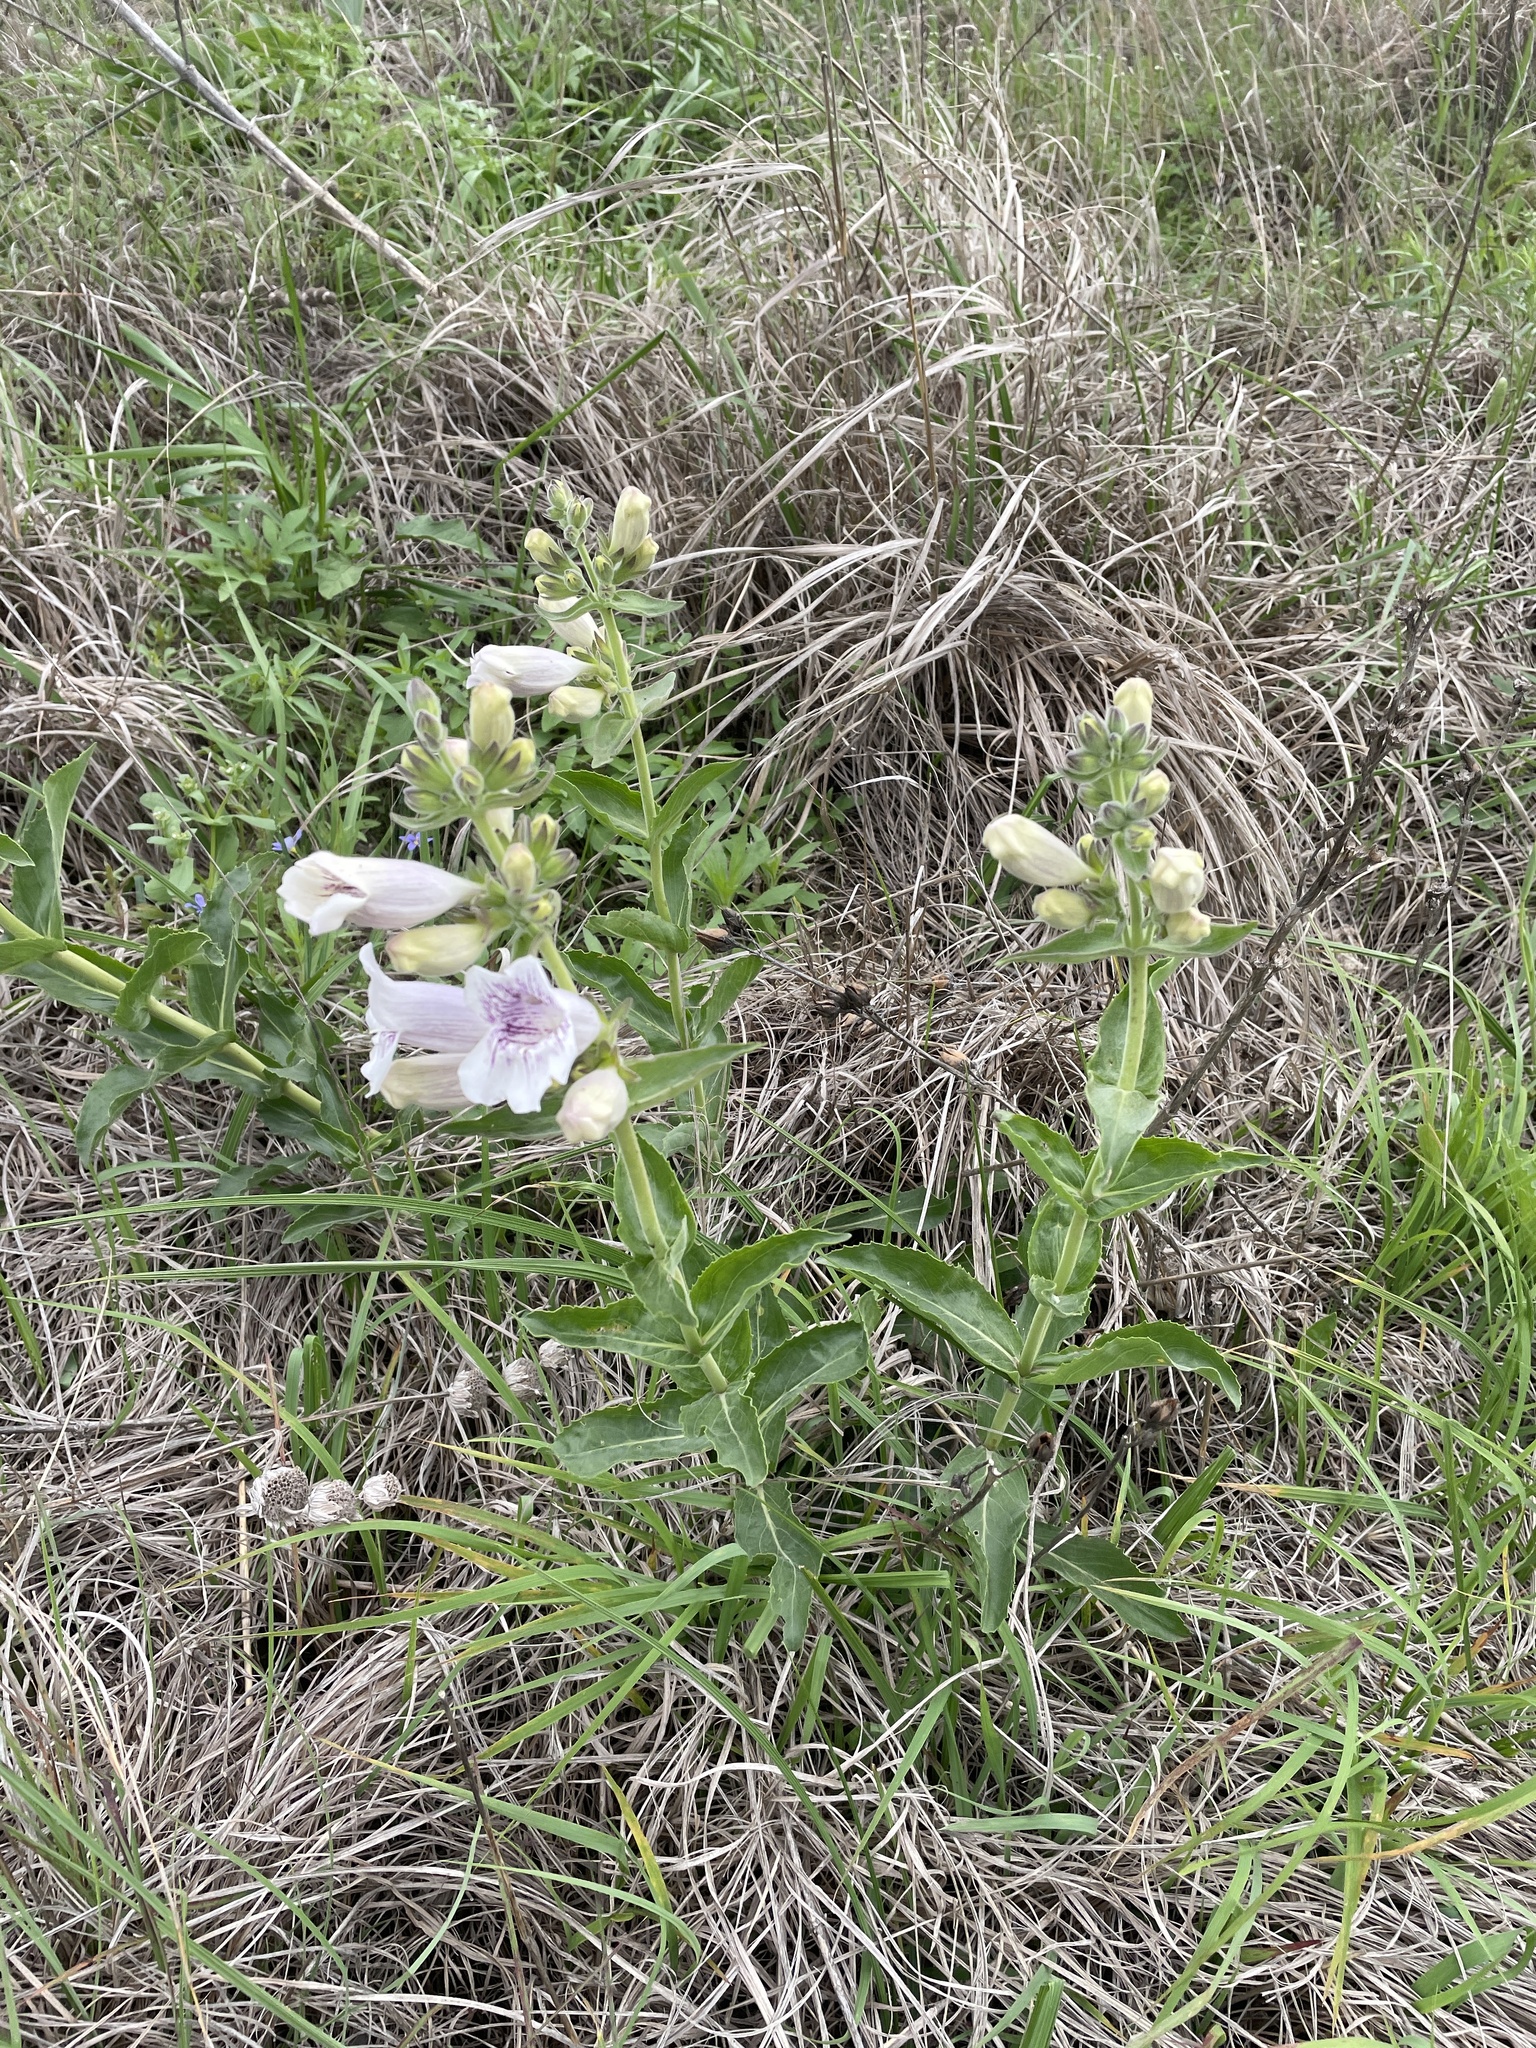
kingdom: Plantae
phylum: Tracheophyta
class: Magnoliopsida
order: Lamiales
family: Plantaginaceae
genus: Penstemon
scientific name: Penstemon cobaea
